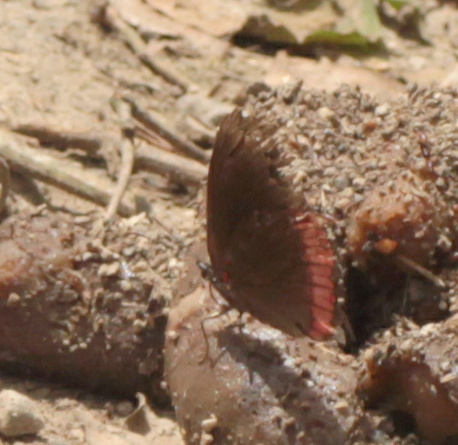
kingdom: Animalia
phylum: Arthropoda
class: Insecta
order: Lepidoptera
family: Sesiidae
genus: Sesia
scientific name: Sesia Biblis hyperia
